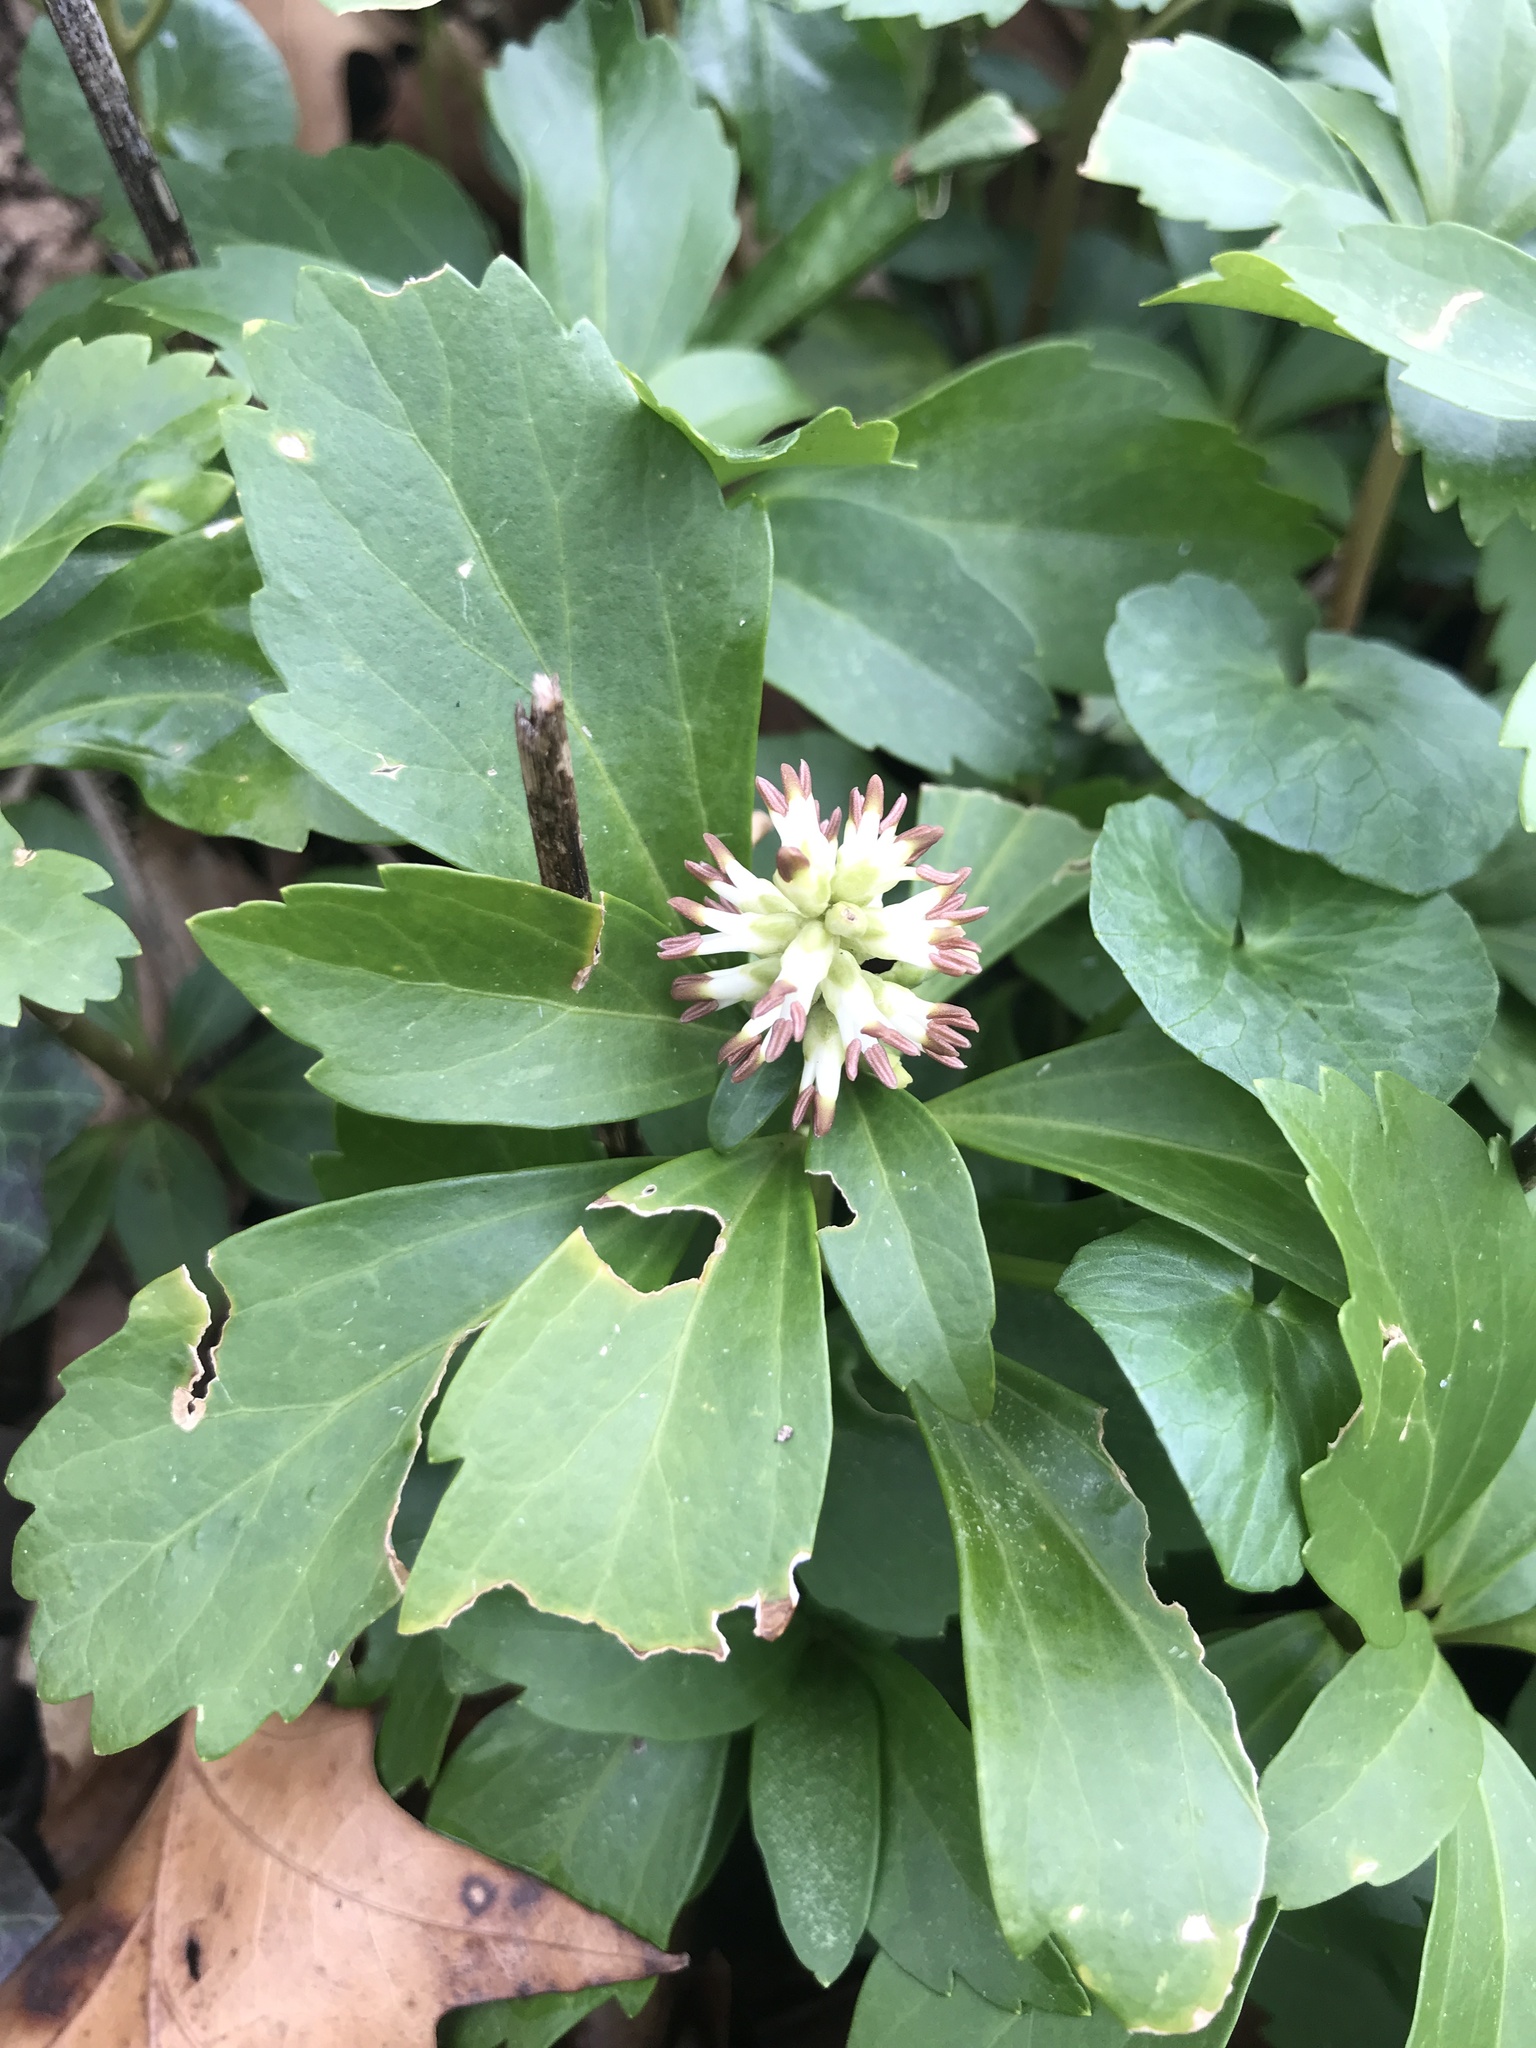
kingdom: Plantae
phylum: Tracheophyta
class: Magnoliopsida
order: Buxales
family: Buxaceae
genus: Pachysandra
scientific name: Pachysandra terminalis
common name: Japanese pachysandra
